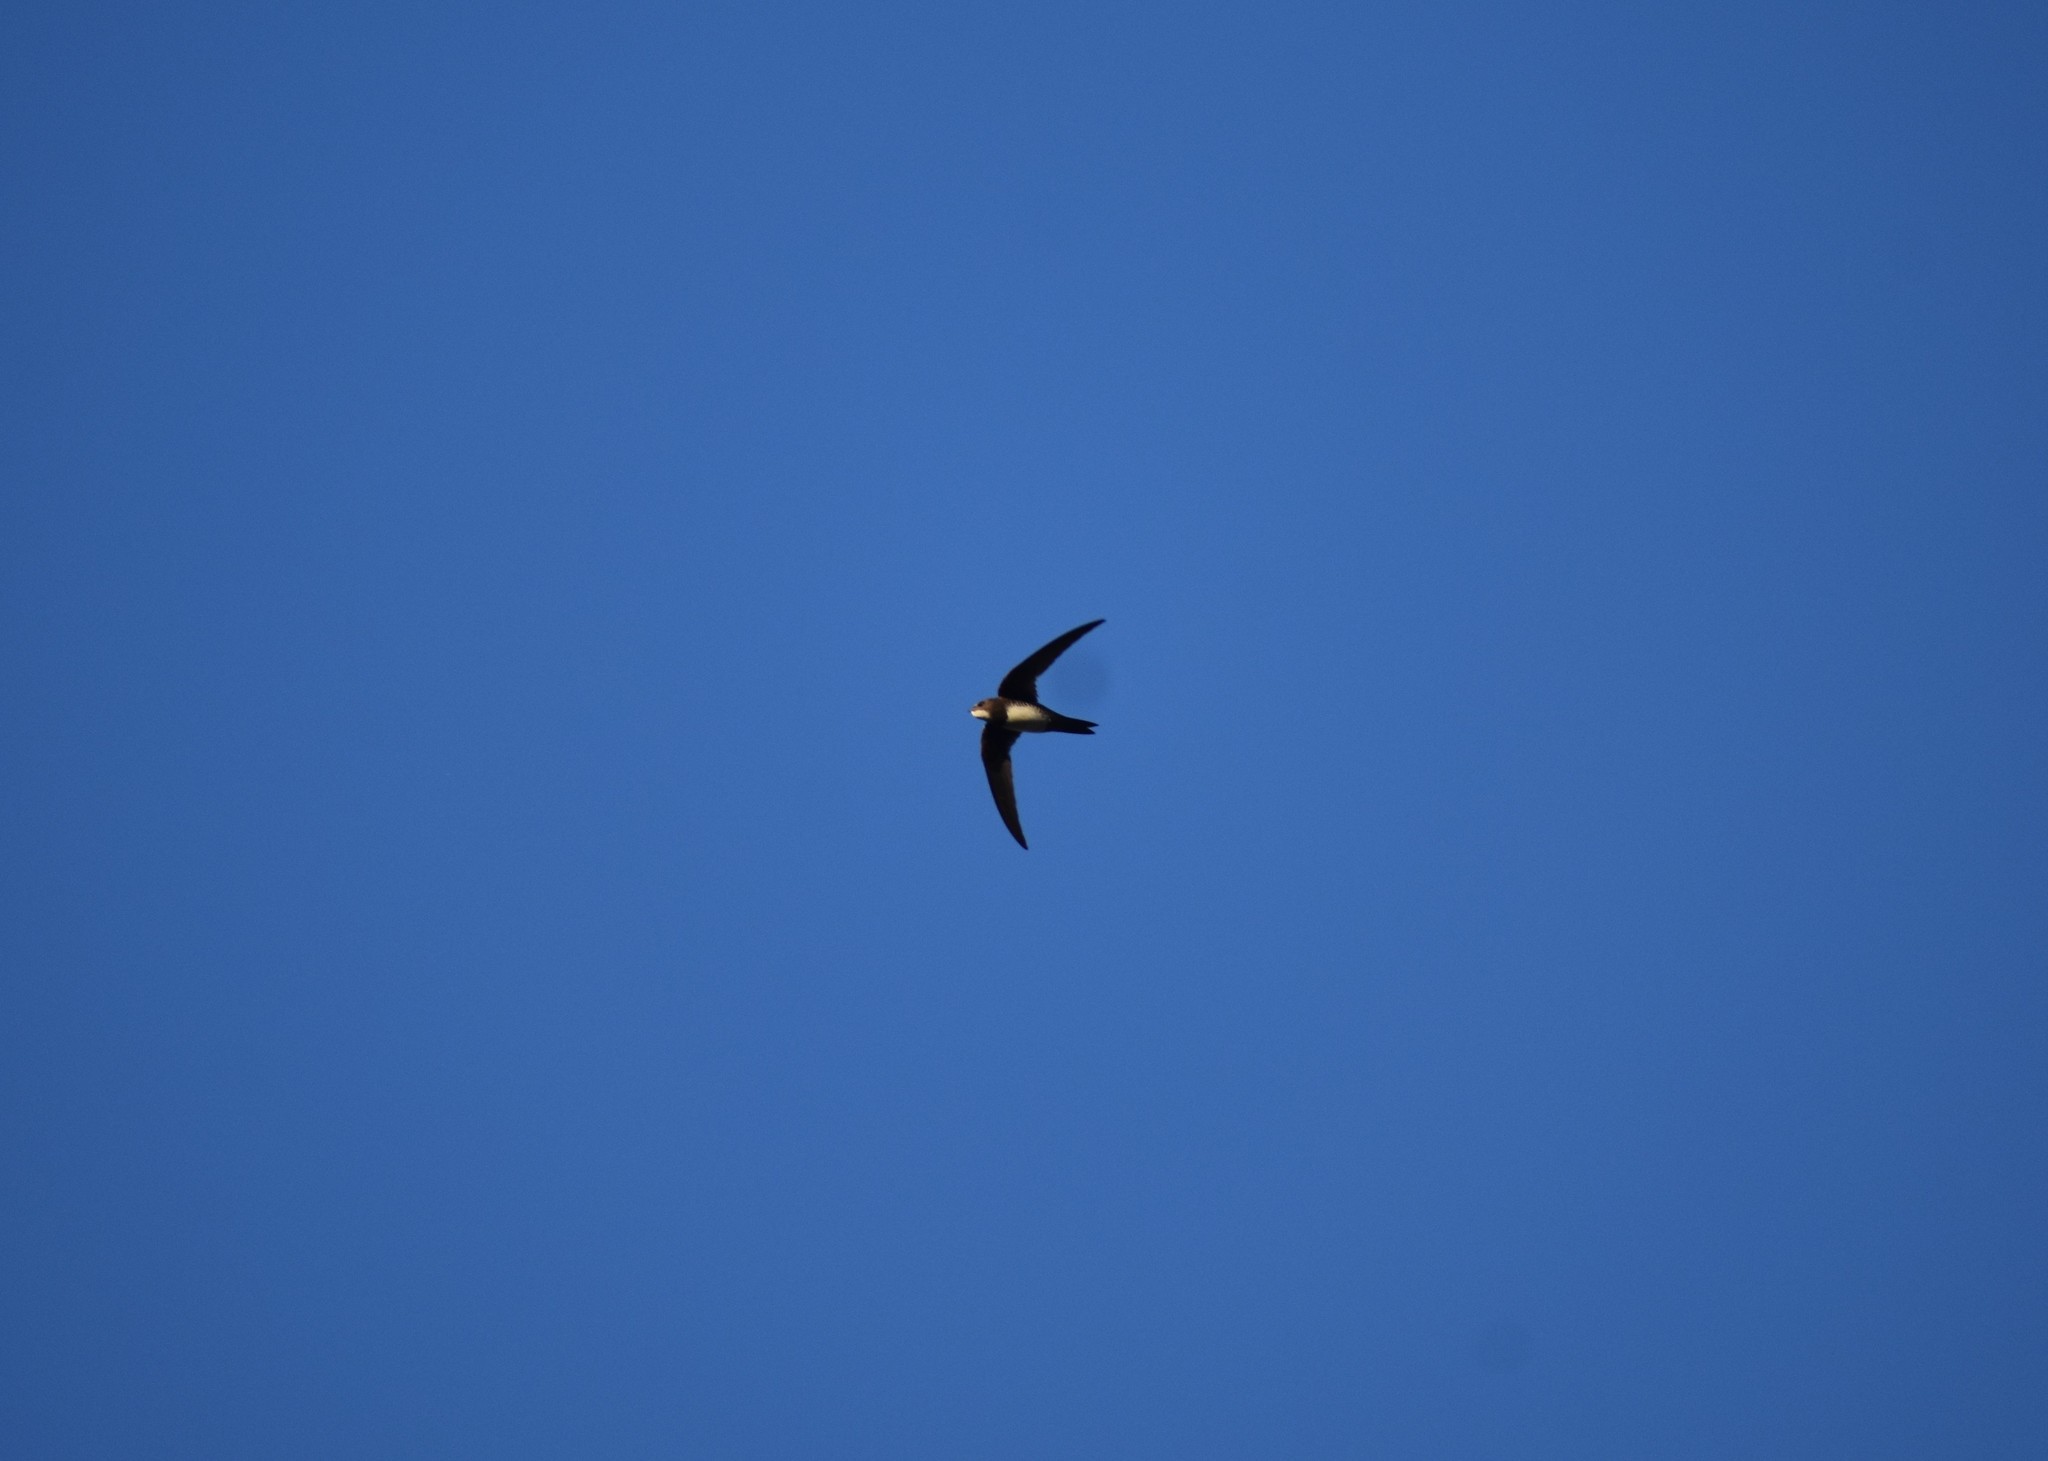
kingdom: Animalia
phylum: Chordata
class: Aves
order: Apodiformes
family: Apodidae
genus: Tachymarptis
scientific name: Tachymarptis melba
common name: Alpine swift
